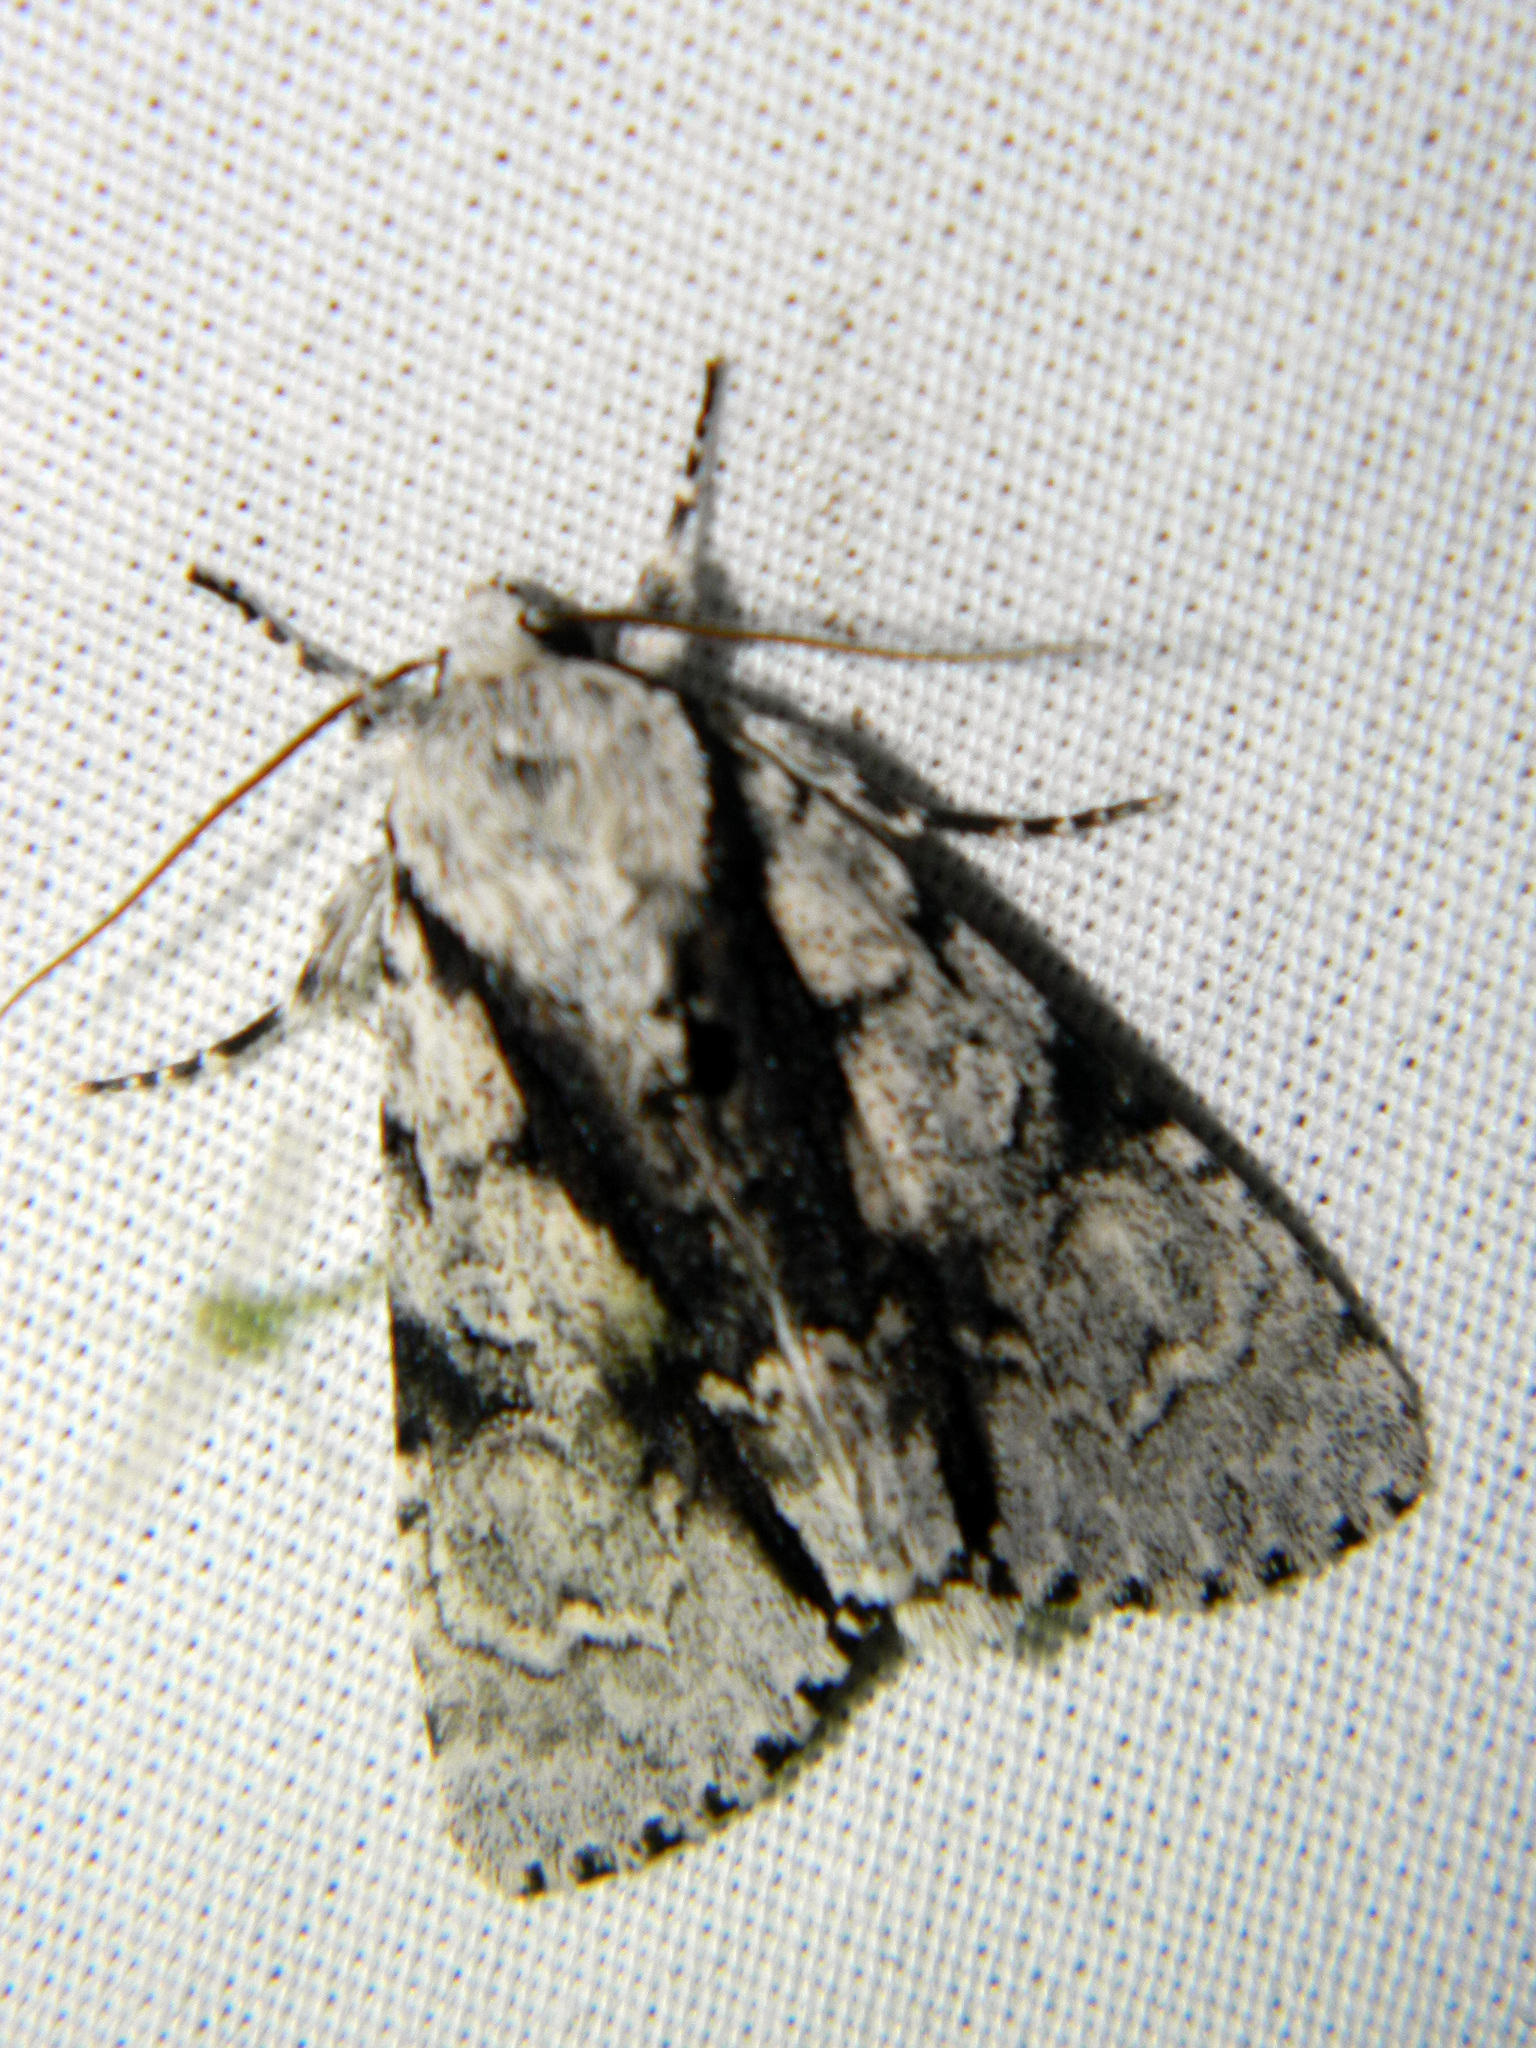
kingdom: Animalia
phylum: Arthropoda
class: Insecta
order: Lepidoptera
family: Noctuidae
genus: Acronicta
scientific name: Acronicta funeralis
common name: Funerary dagger
